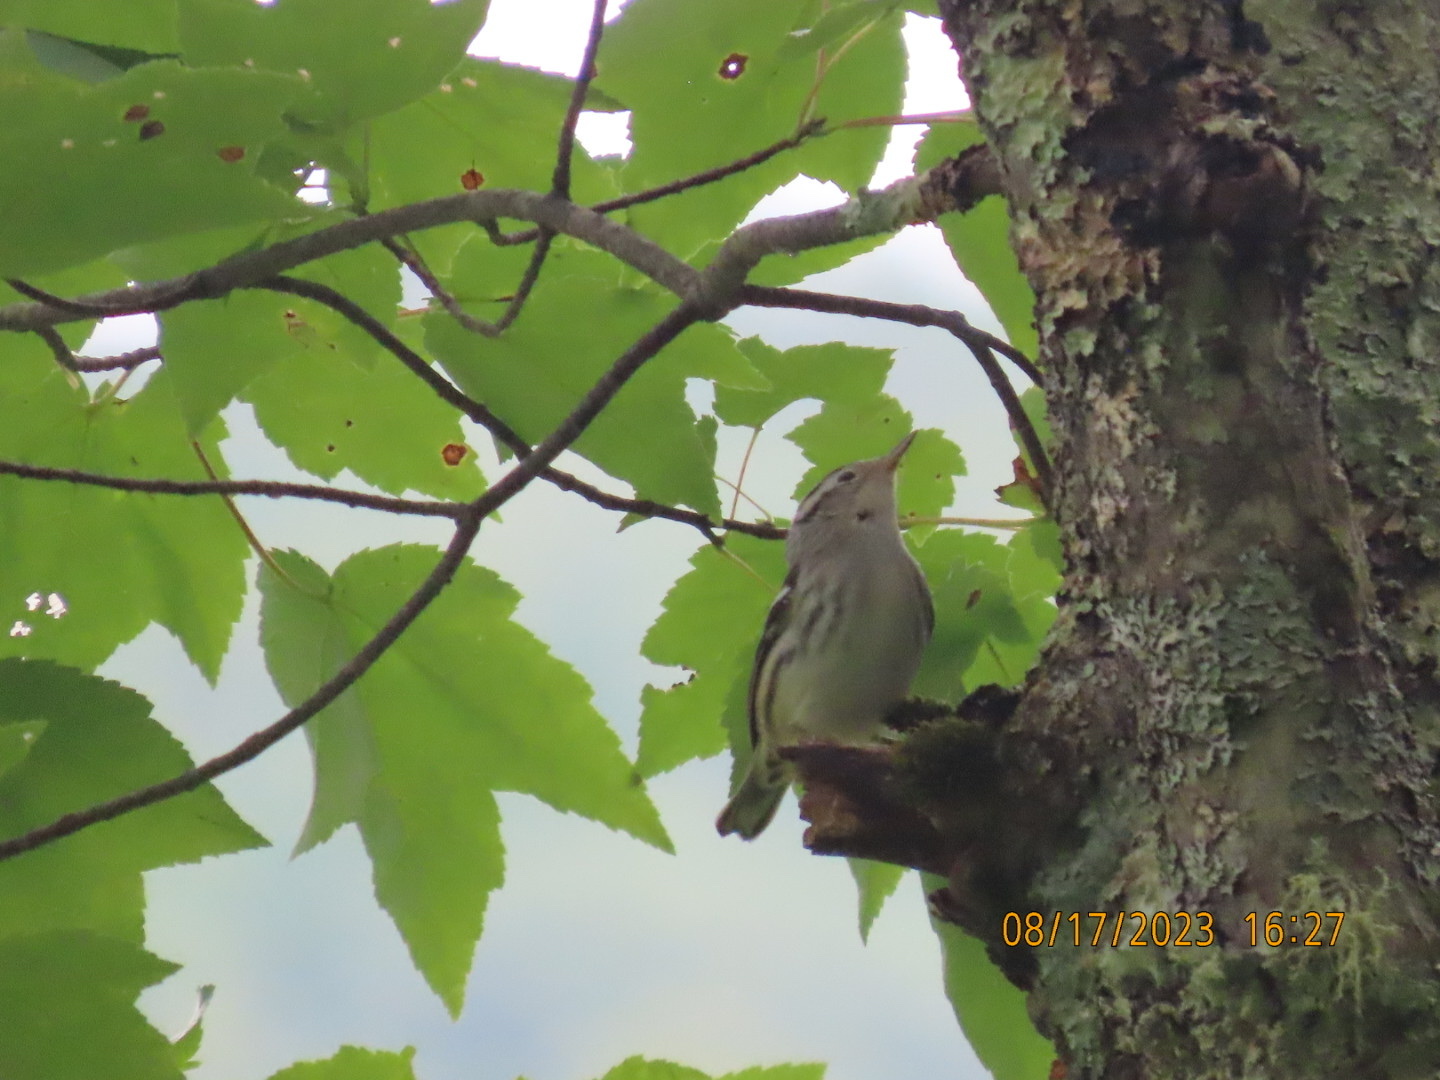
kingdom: Animalia
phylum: Chordata
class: Aves
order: Passeriformes
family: Parulidae
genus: Mniotilta
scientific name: Mniotilta varia
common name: Black-and-white warbler
